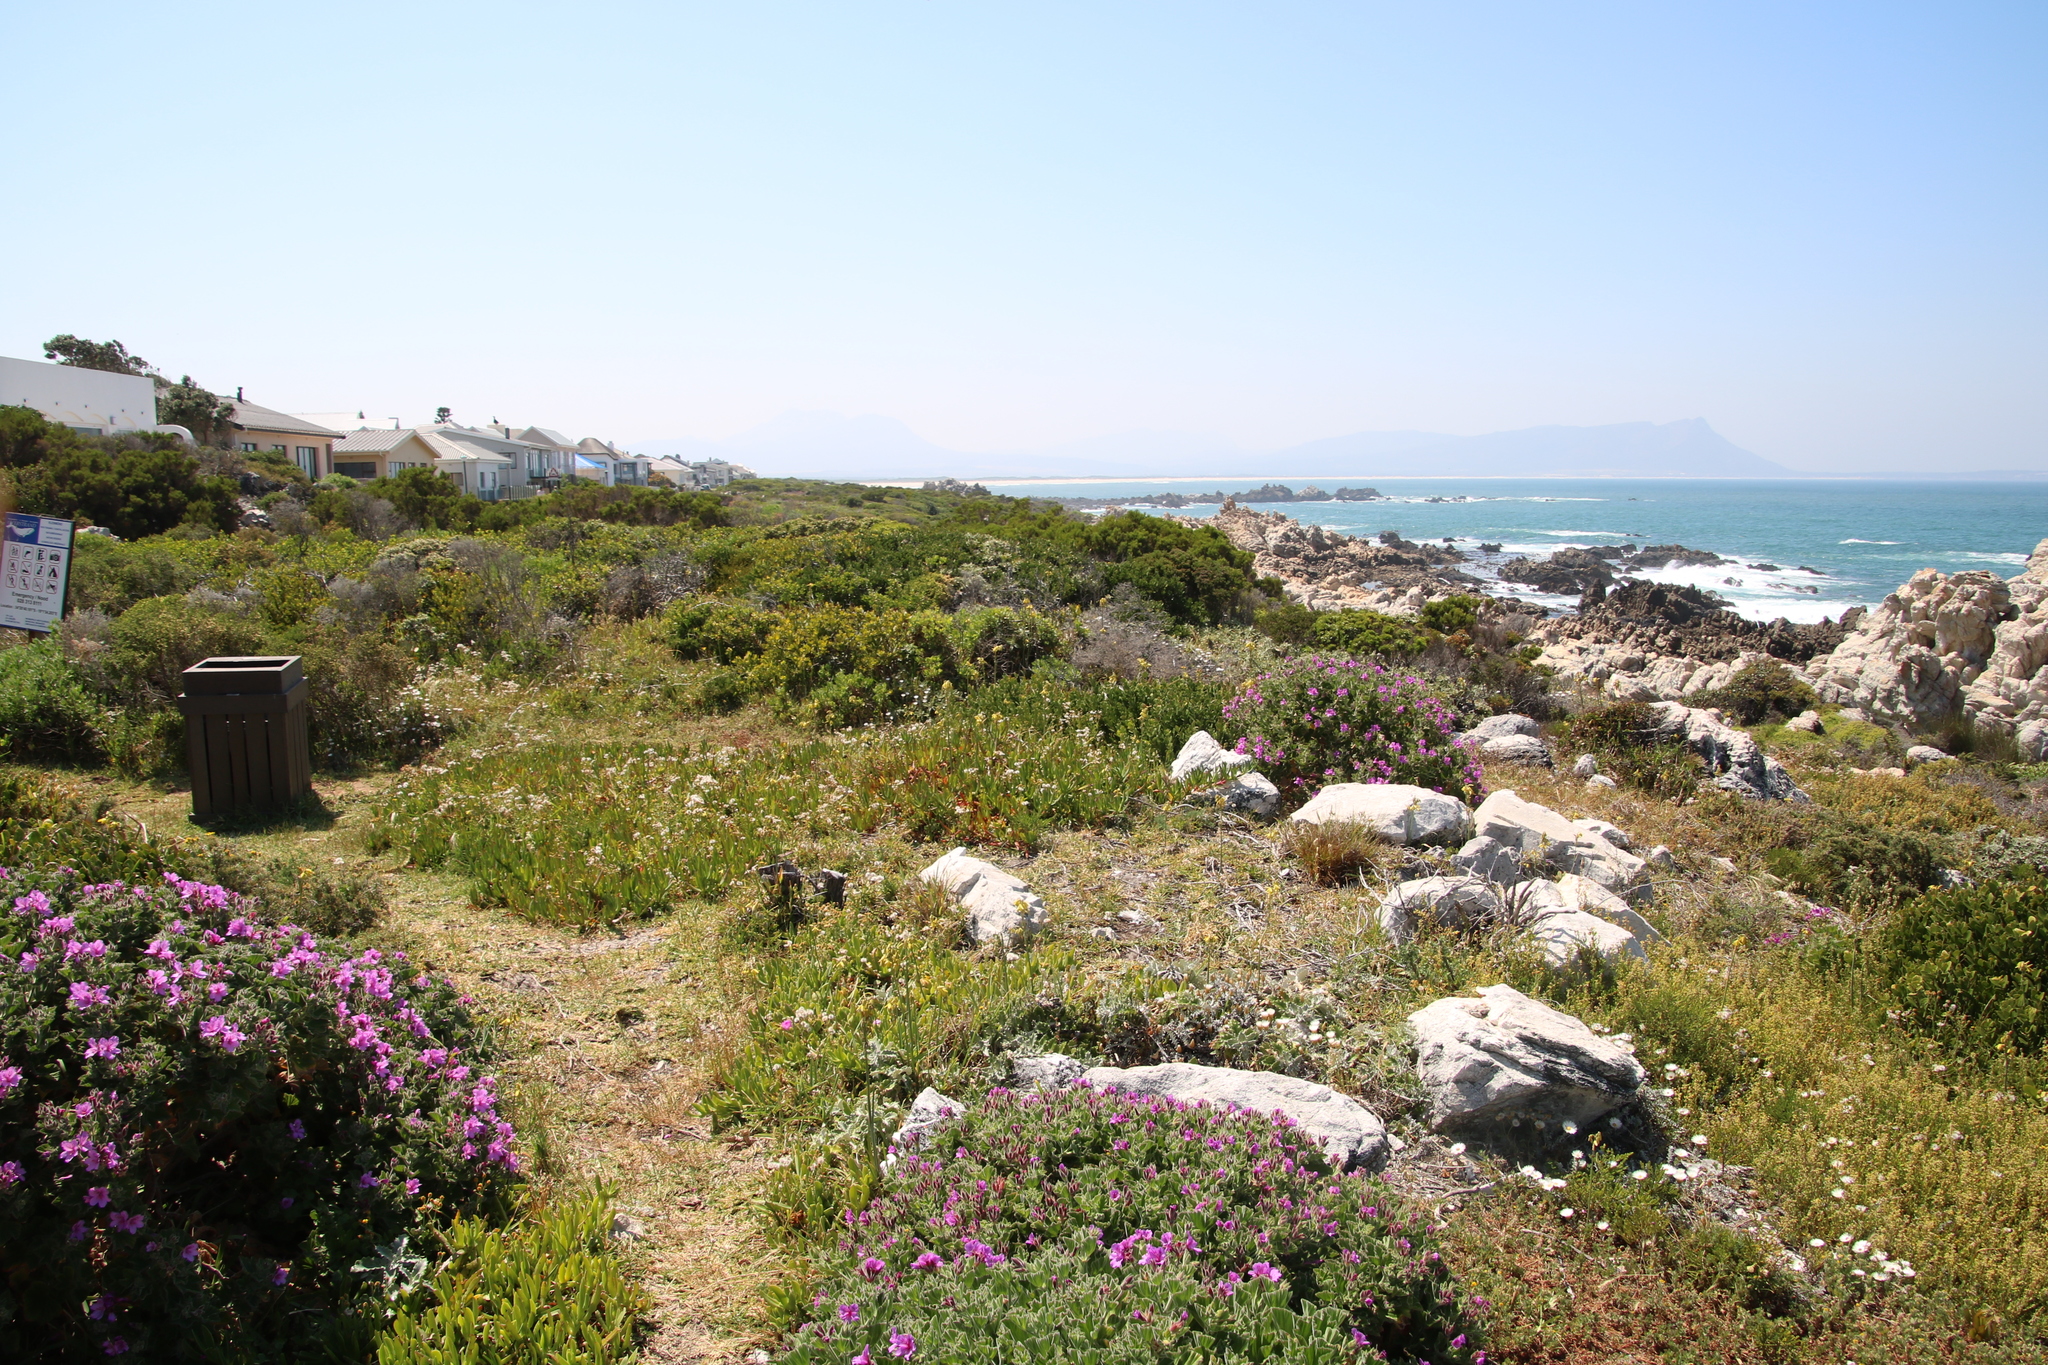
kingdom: Plantae
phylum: Tracheophyta
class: Liliopsida
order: Asparagales
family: Asparagaceae
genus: Albuca
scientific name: Albuca flaccida
